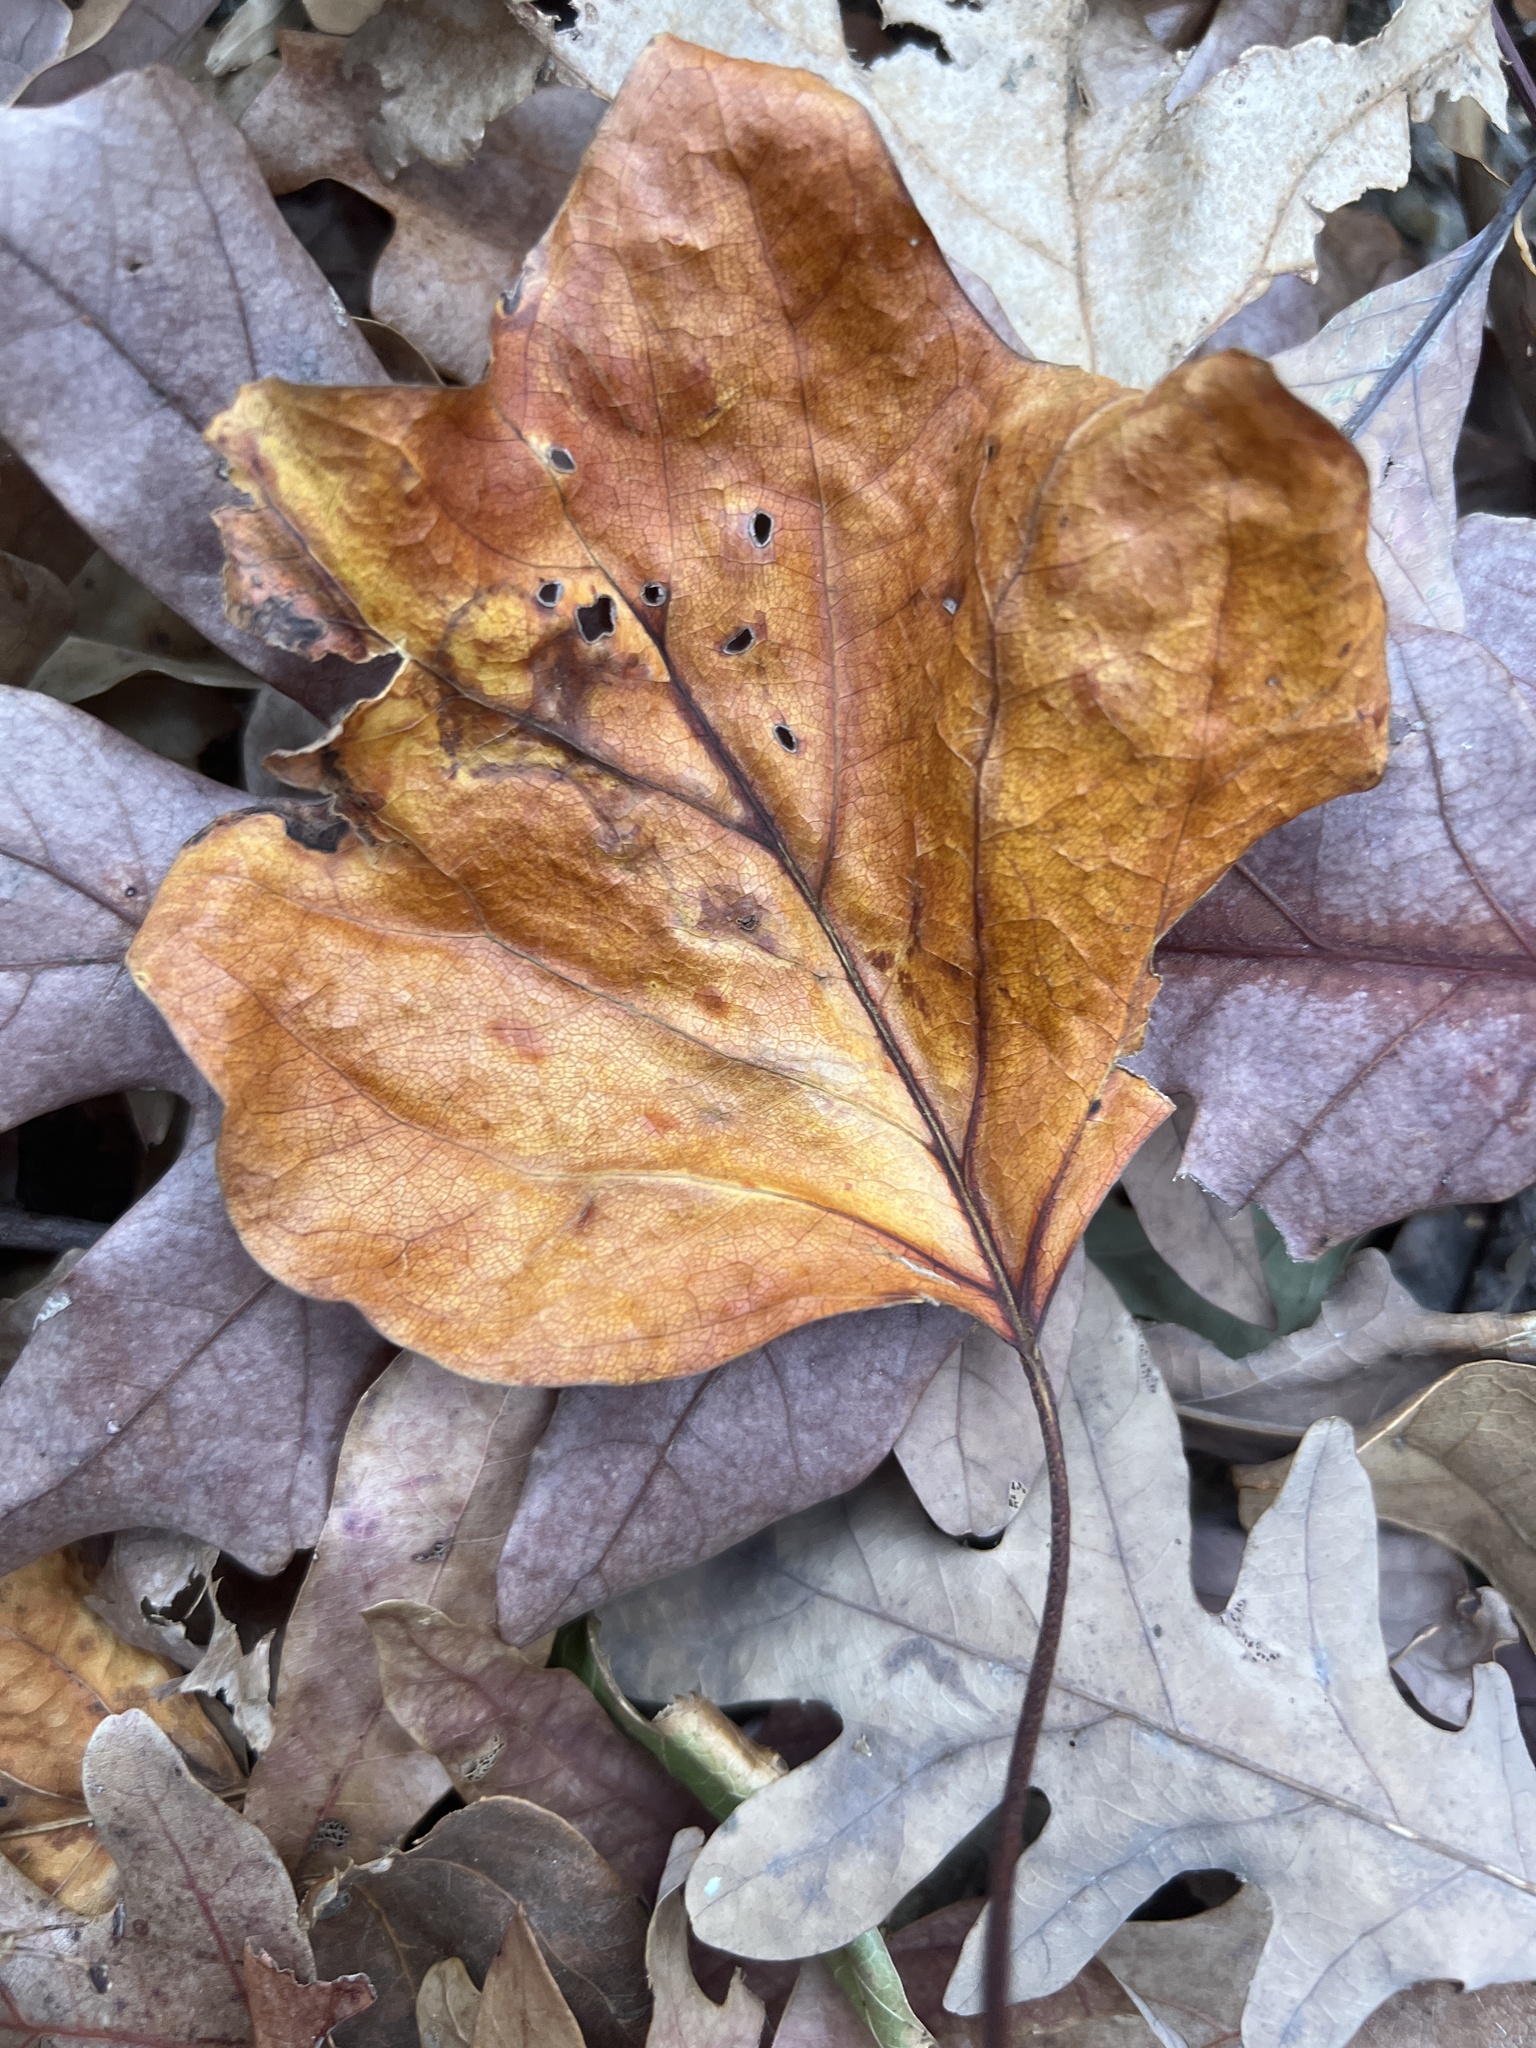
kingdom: Plantae
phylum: Tracheophyta
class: Magnoliopsida
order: Magnoliales
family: Magnoliaceae
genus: Liriodendron
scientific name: Liriodendron tulipifera
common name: Tulip tree
